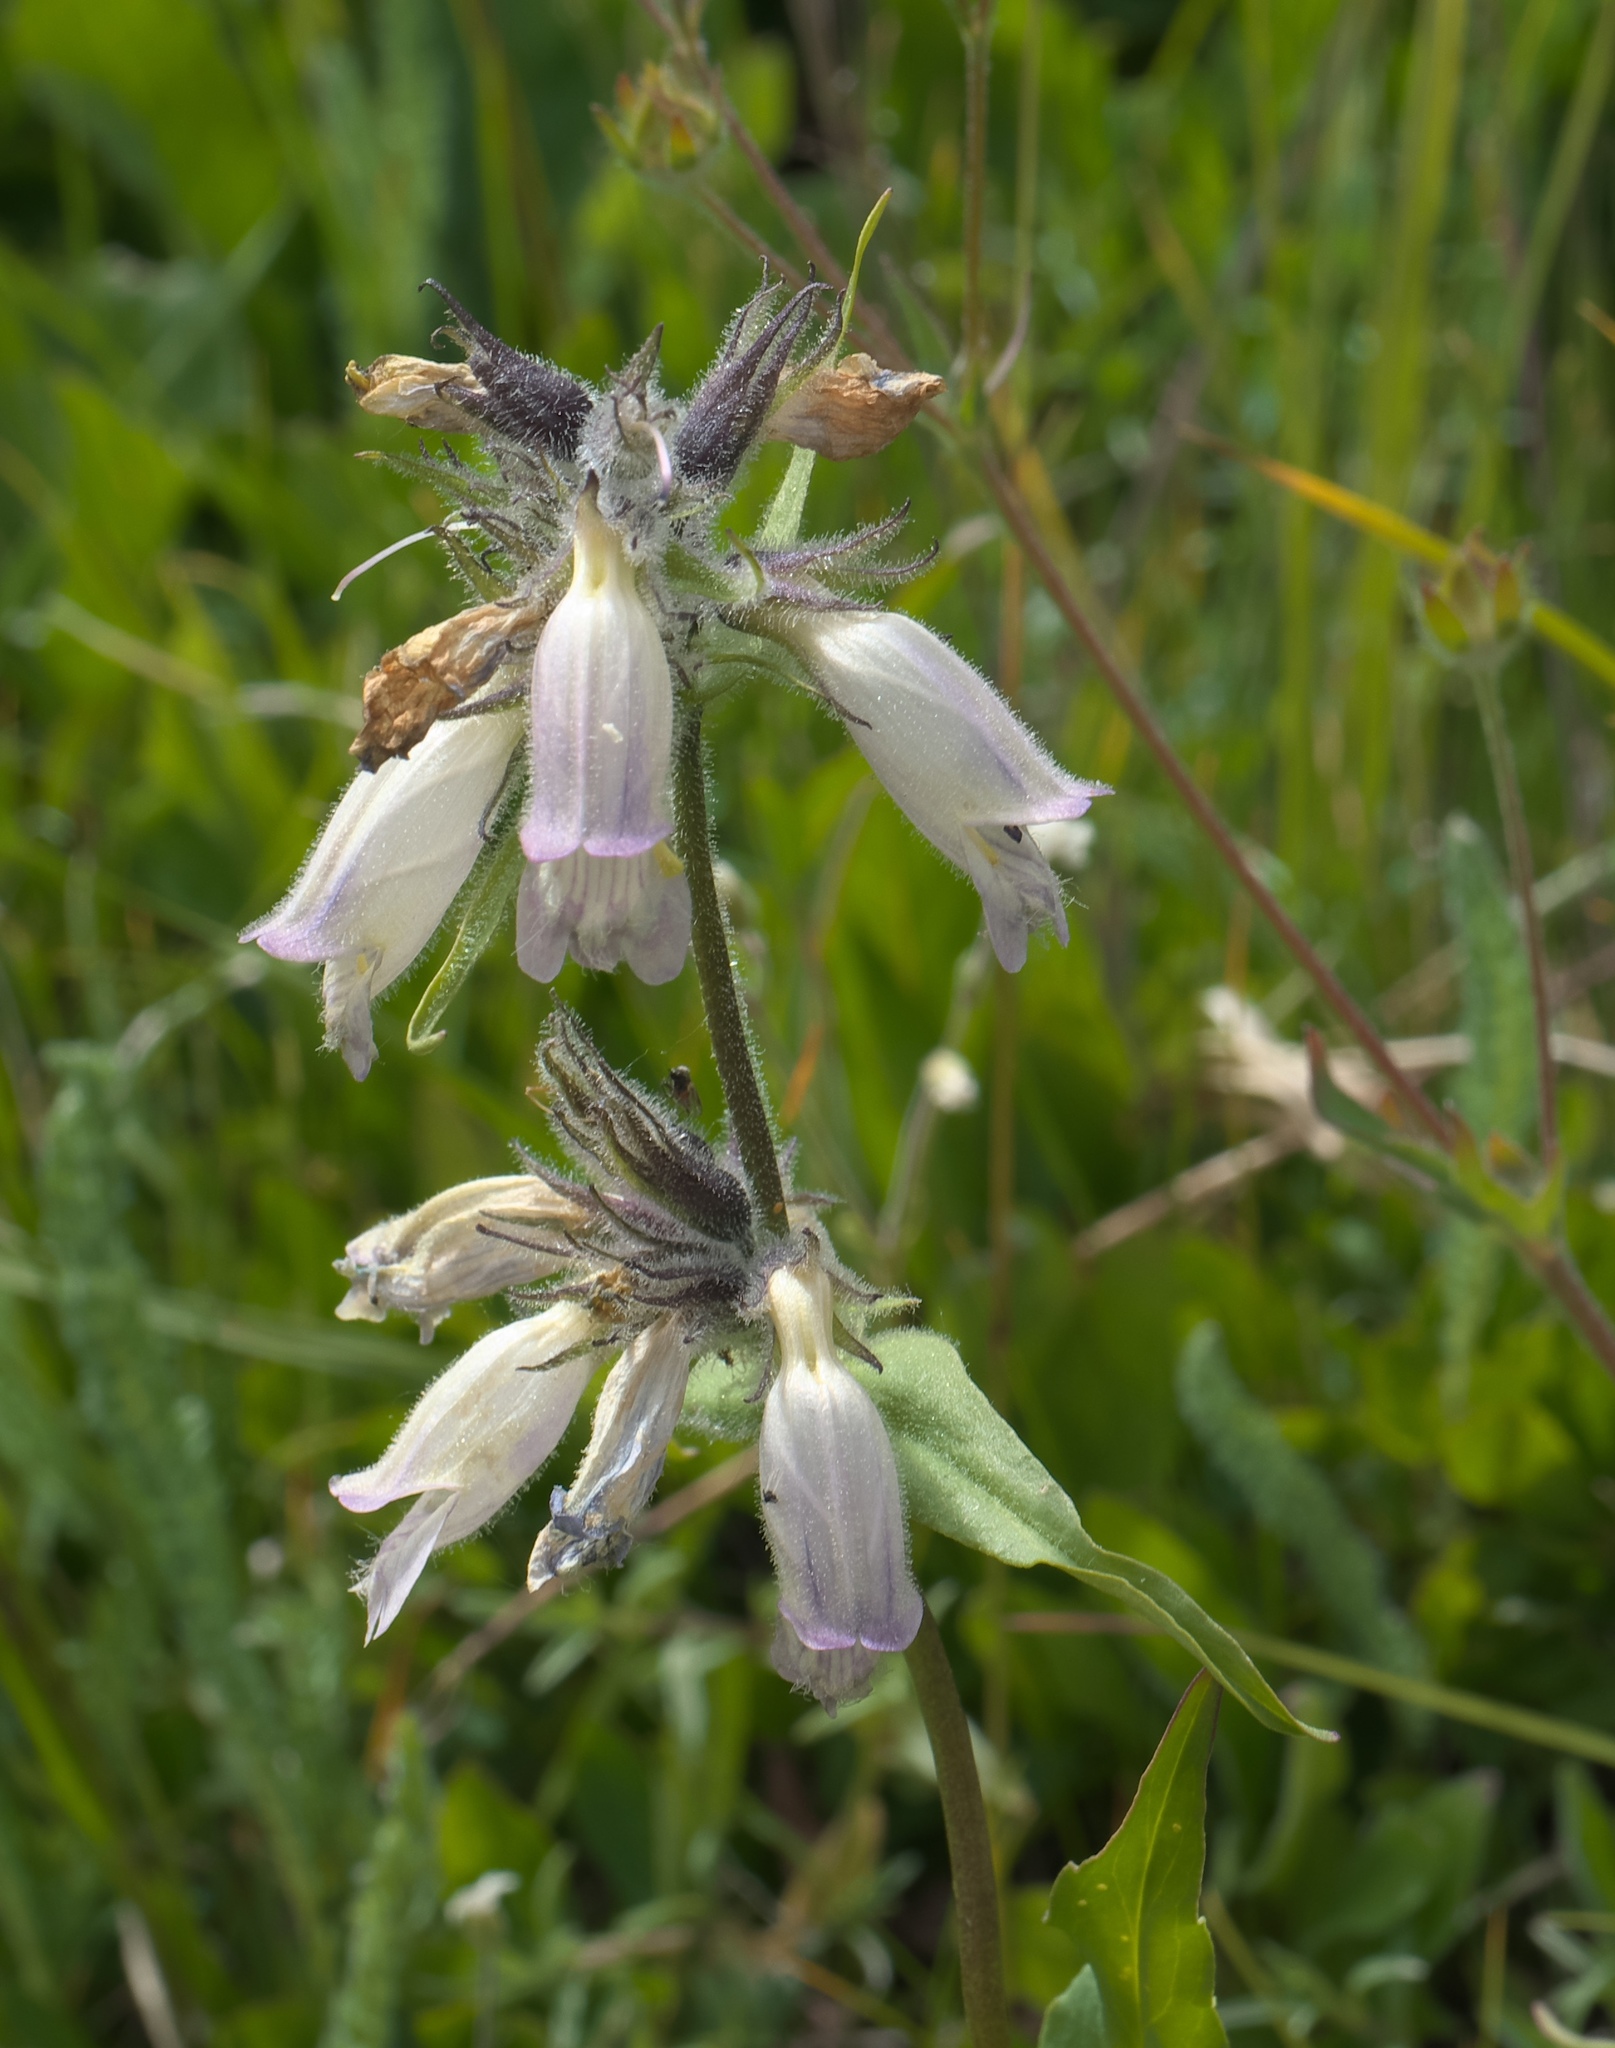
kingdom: Plantae
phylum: Tracheophyta
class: Magnoliopsida
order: Lamiales
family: Plantaginaceae
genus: Penstemon
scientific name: Penstemon whippleanus
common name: Whipple's penstemon
